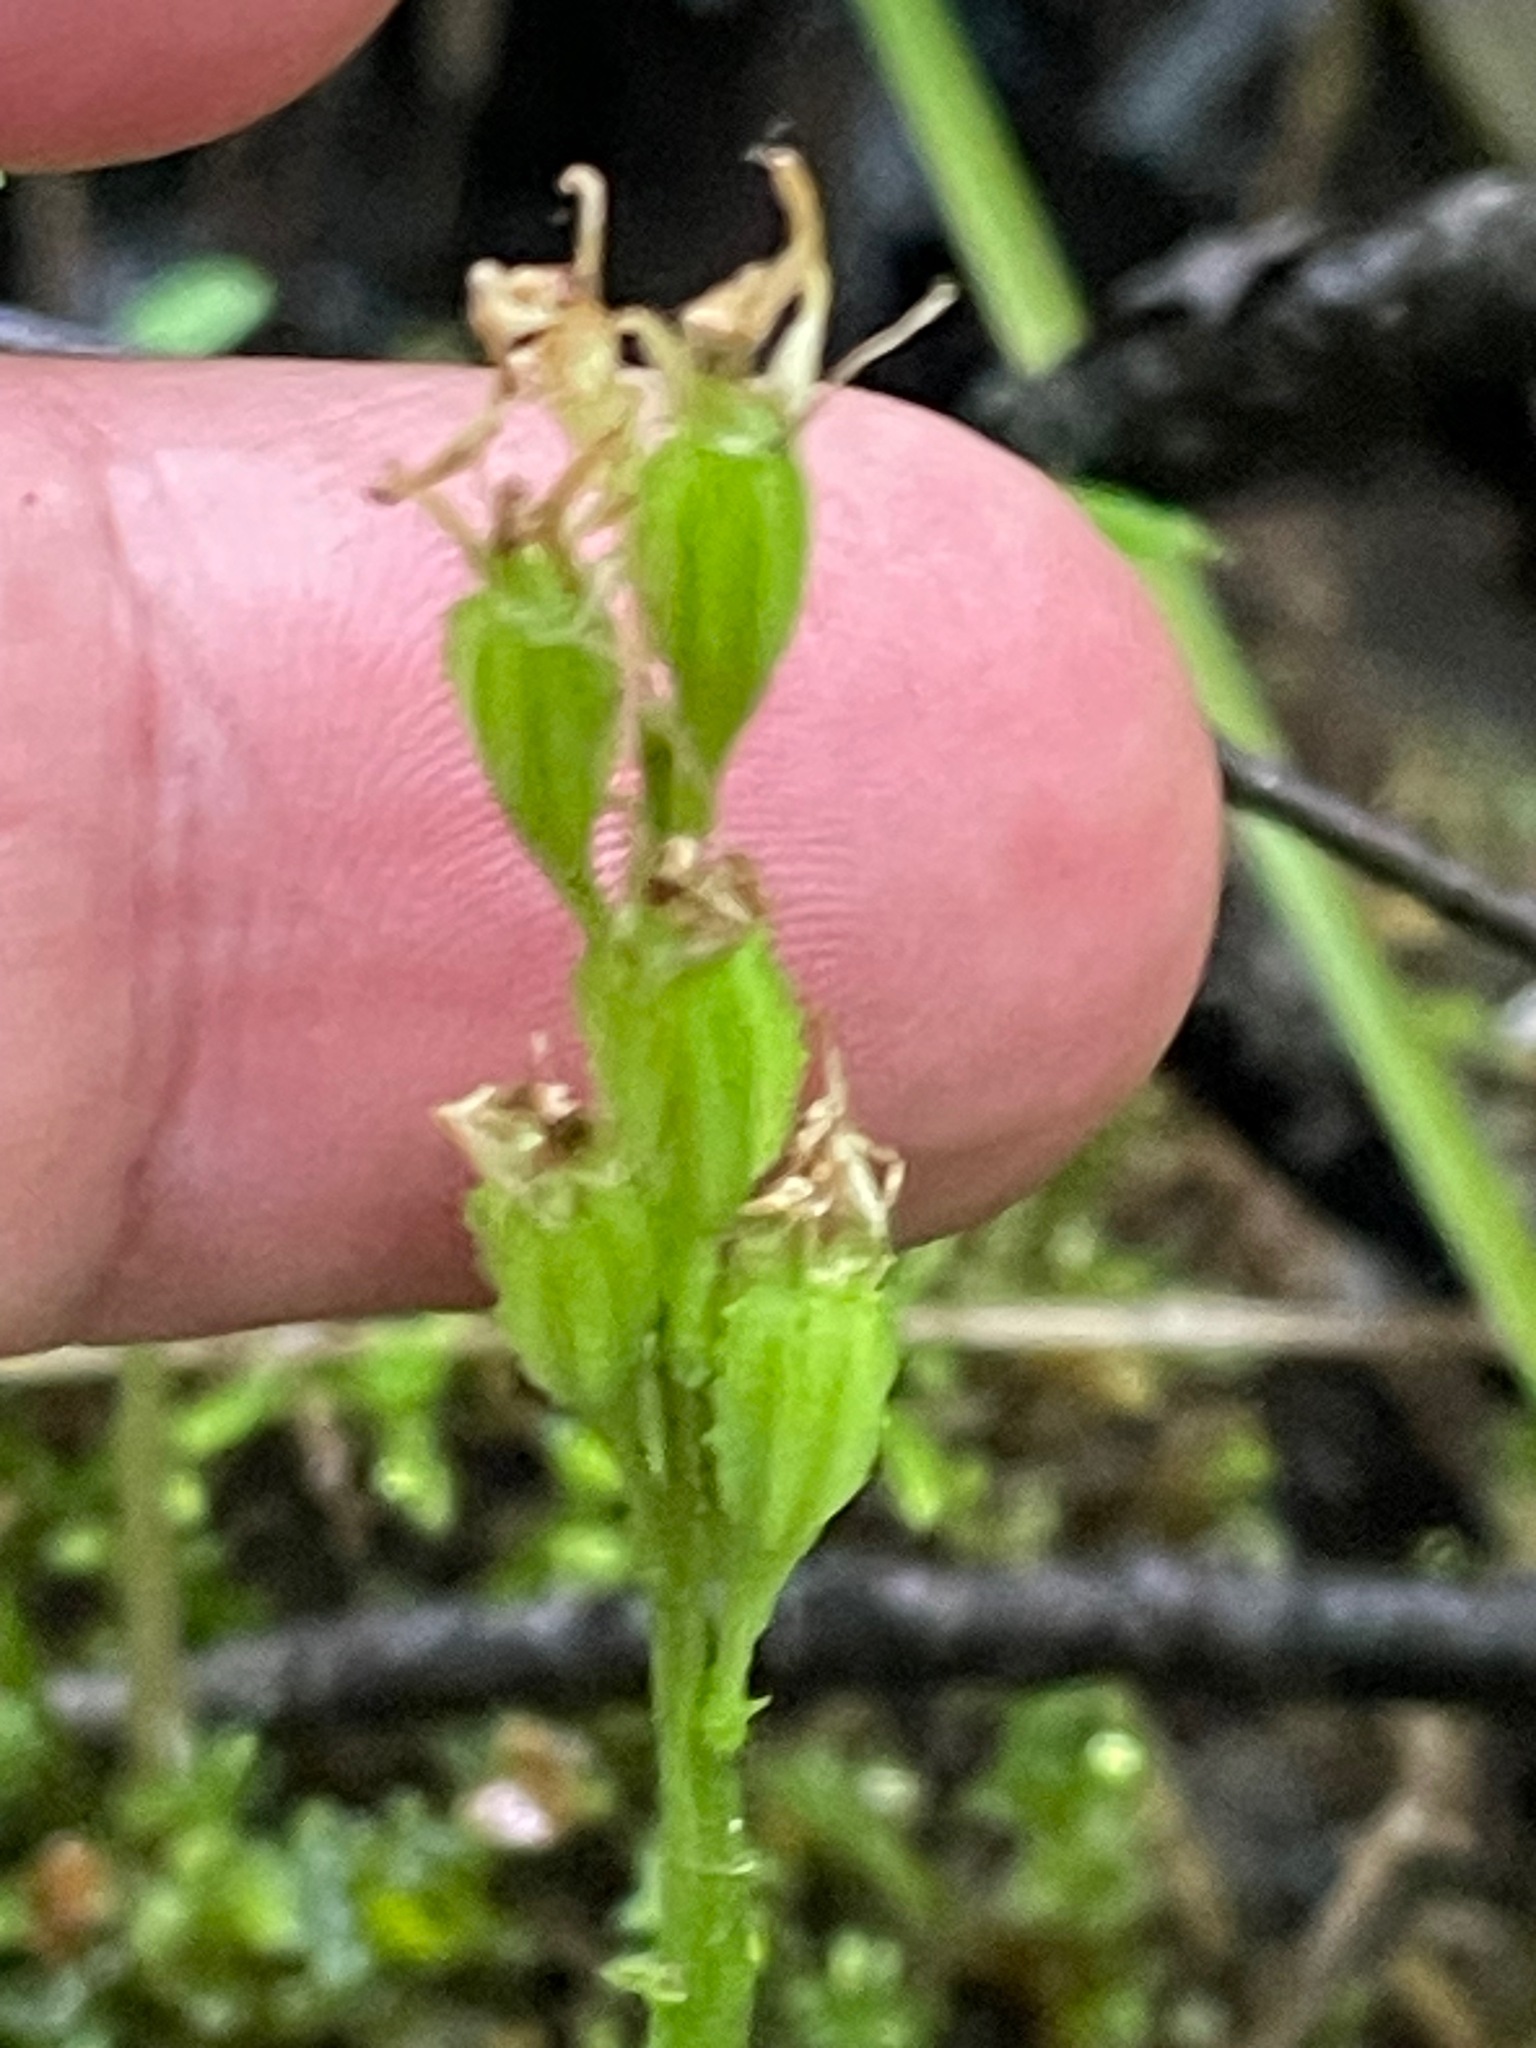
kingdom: Animalia
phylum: Arthropoda
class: Insecta
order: Coleoptera
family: Curculionidae
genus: Liparis
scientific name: Liparis loeselii
